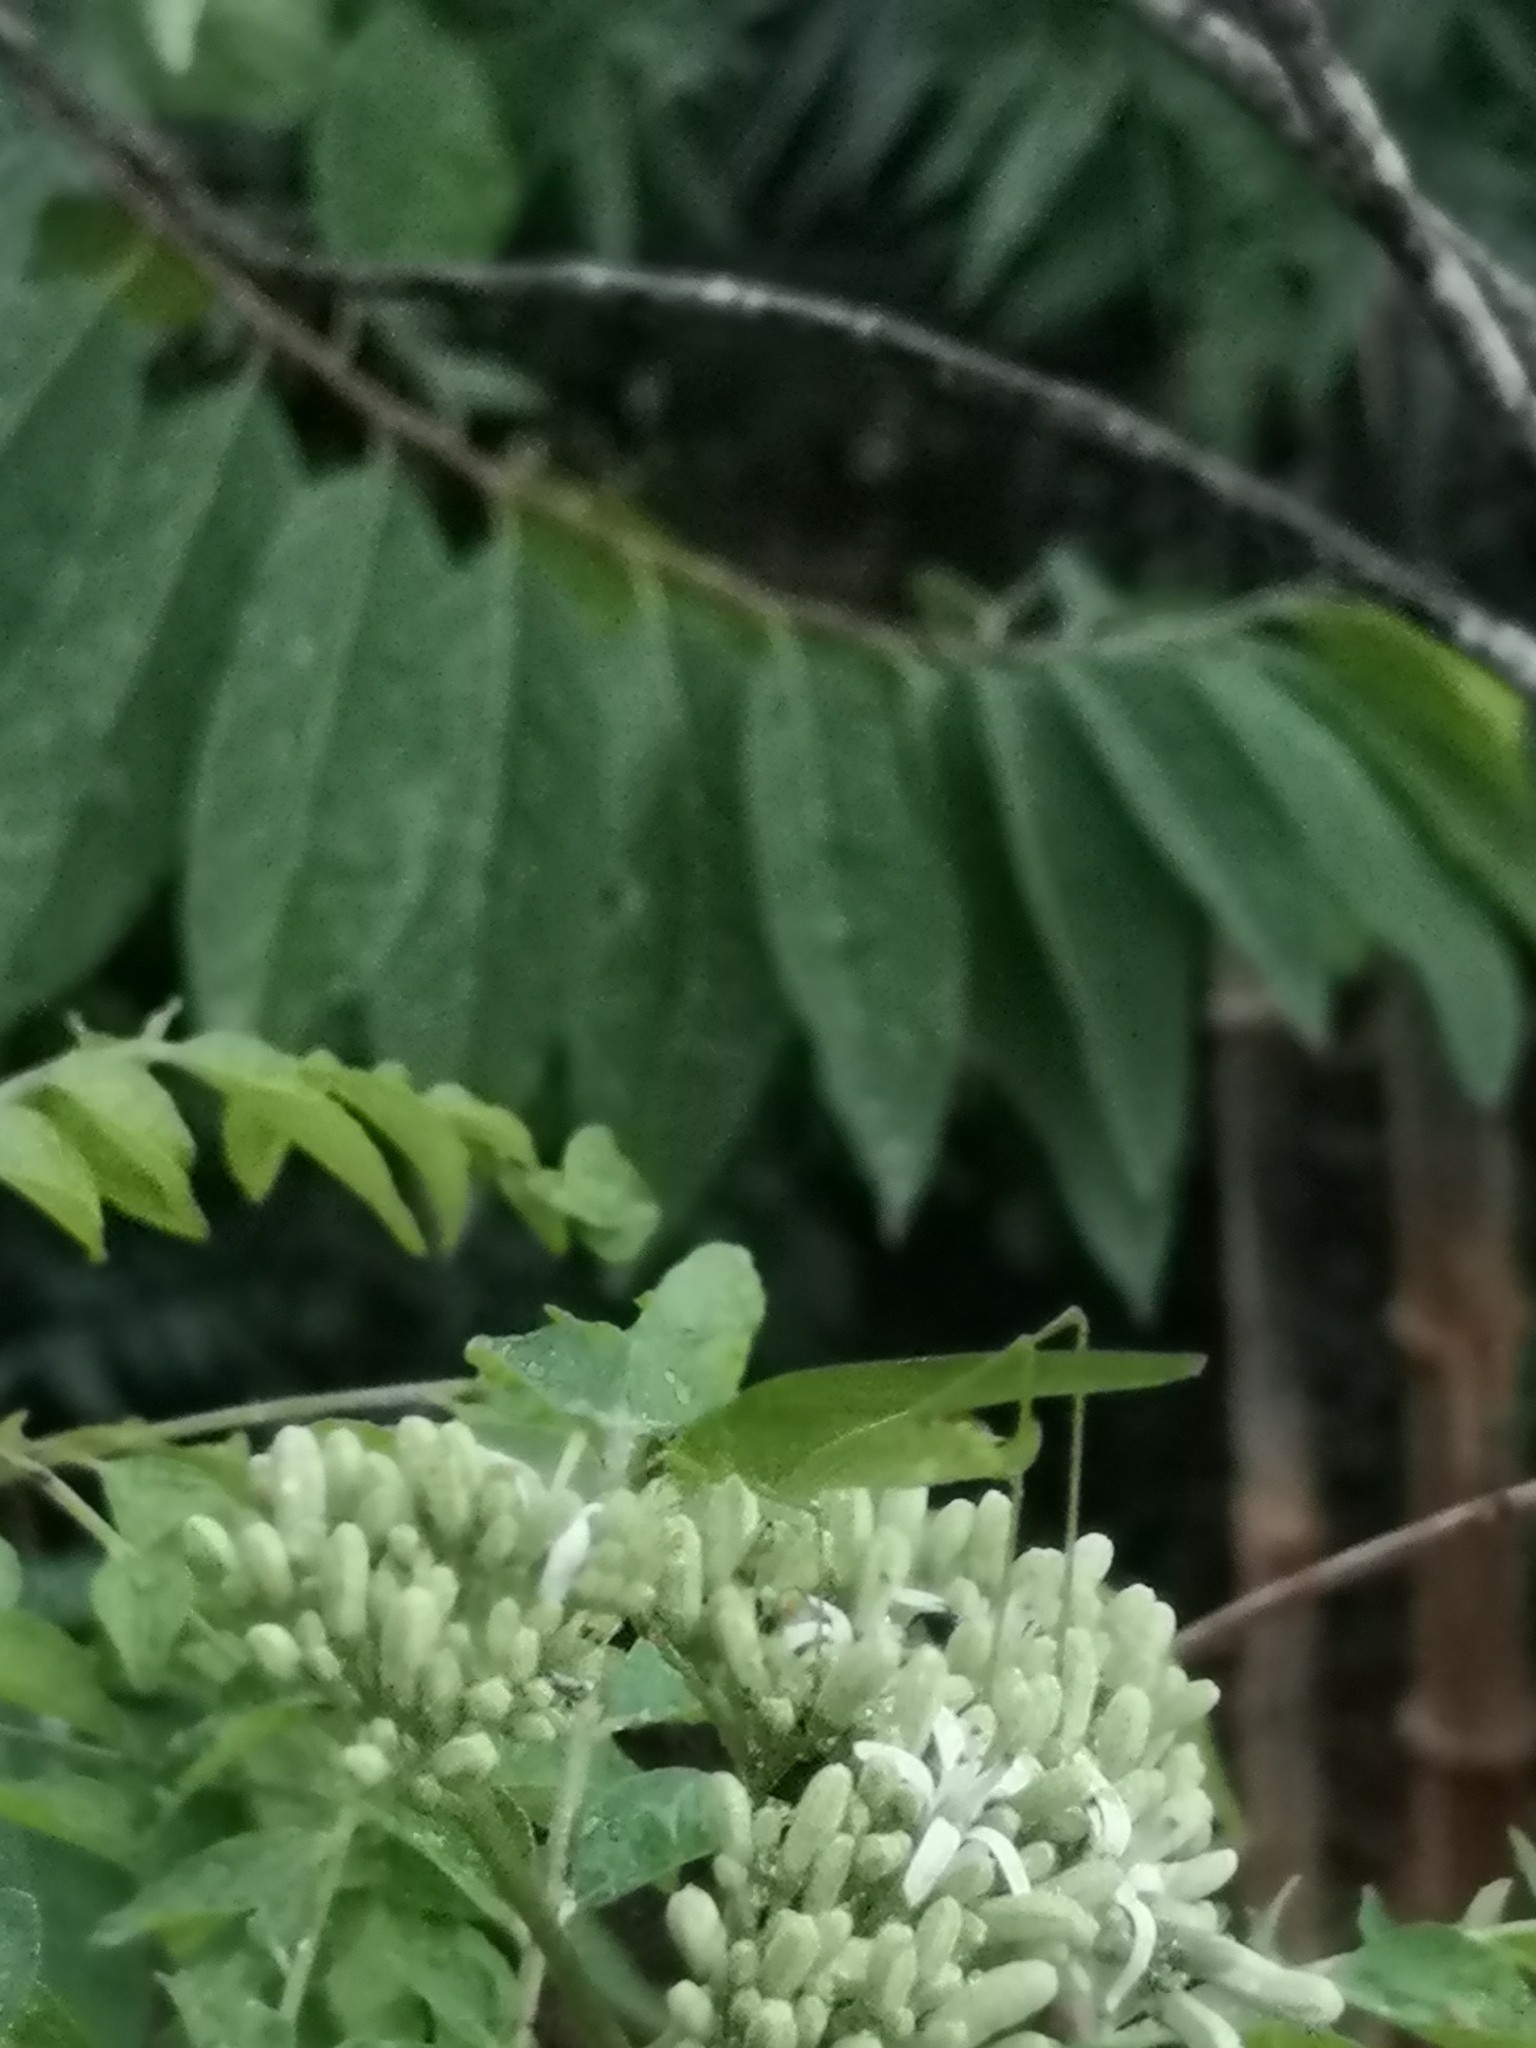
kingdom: Animalia
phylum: Arthropoda
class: Insecta
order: Orthoptera
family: Tettigoniidae
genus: Phaneroptera
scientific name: Phaneroptera brevis
